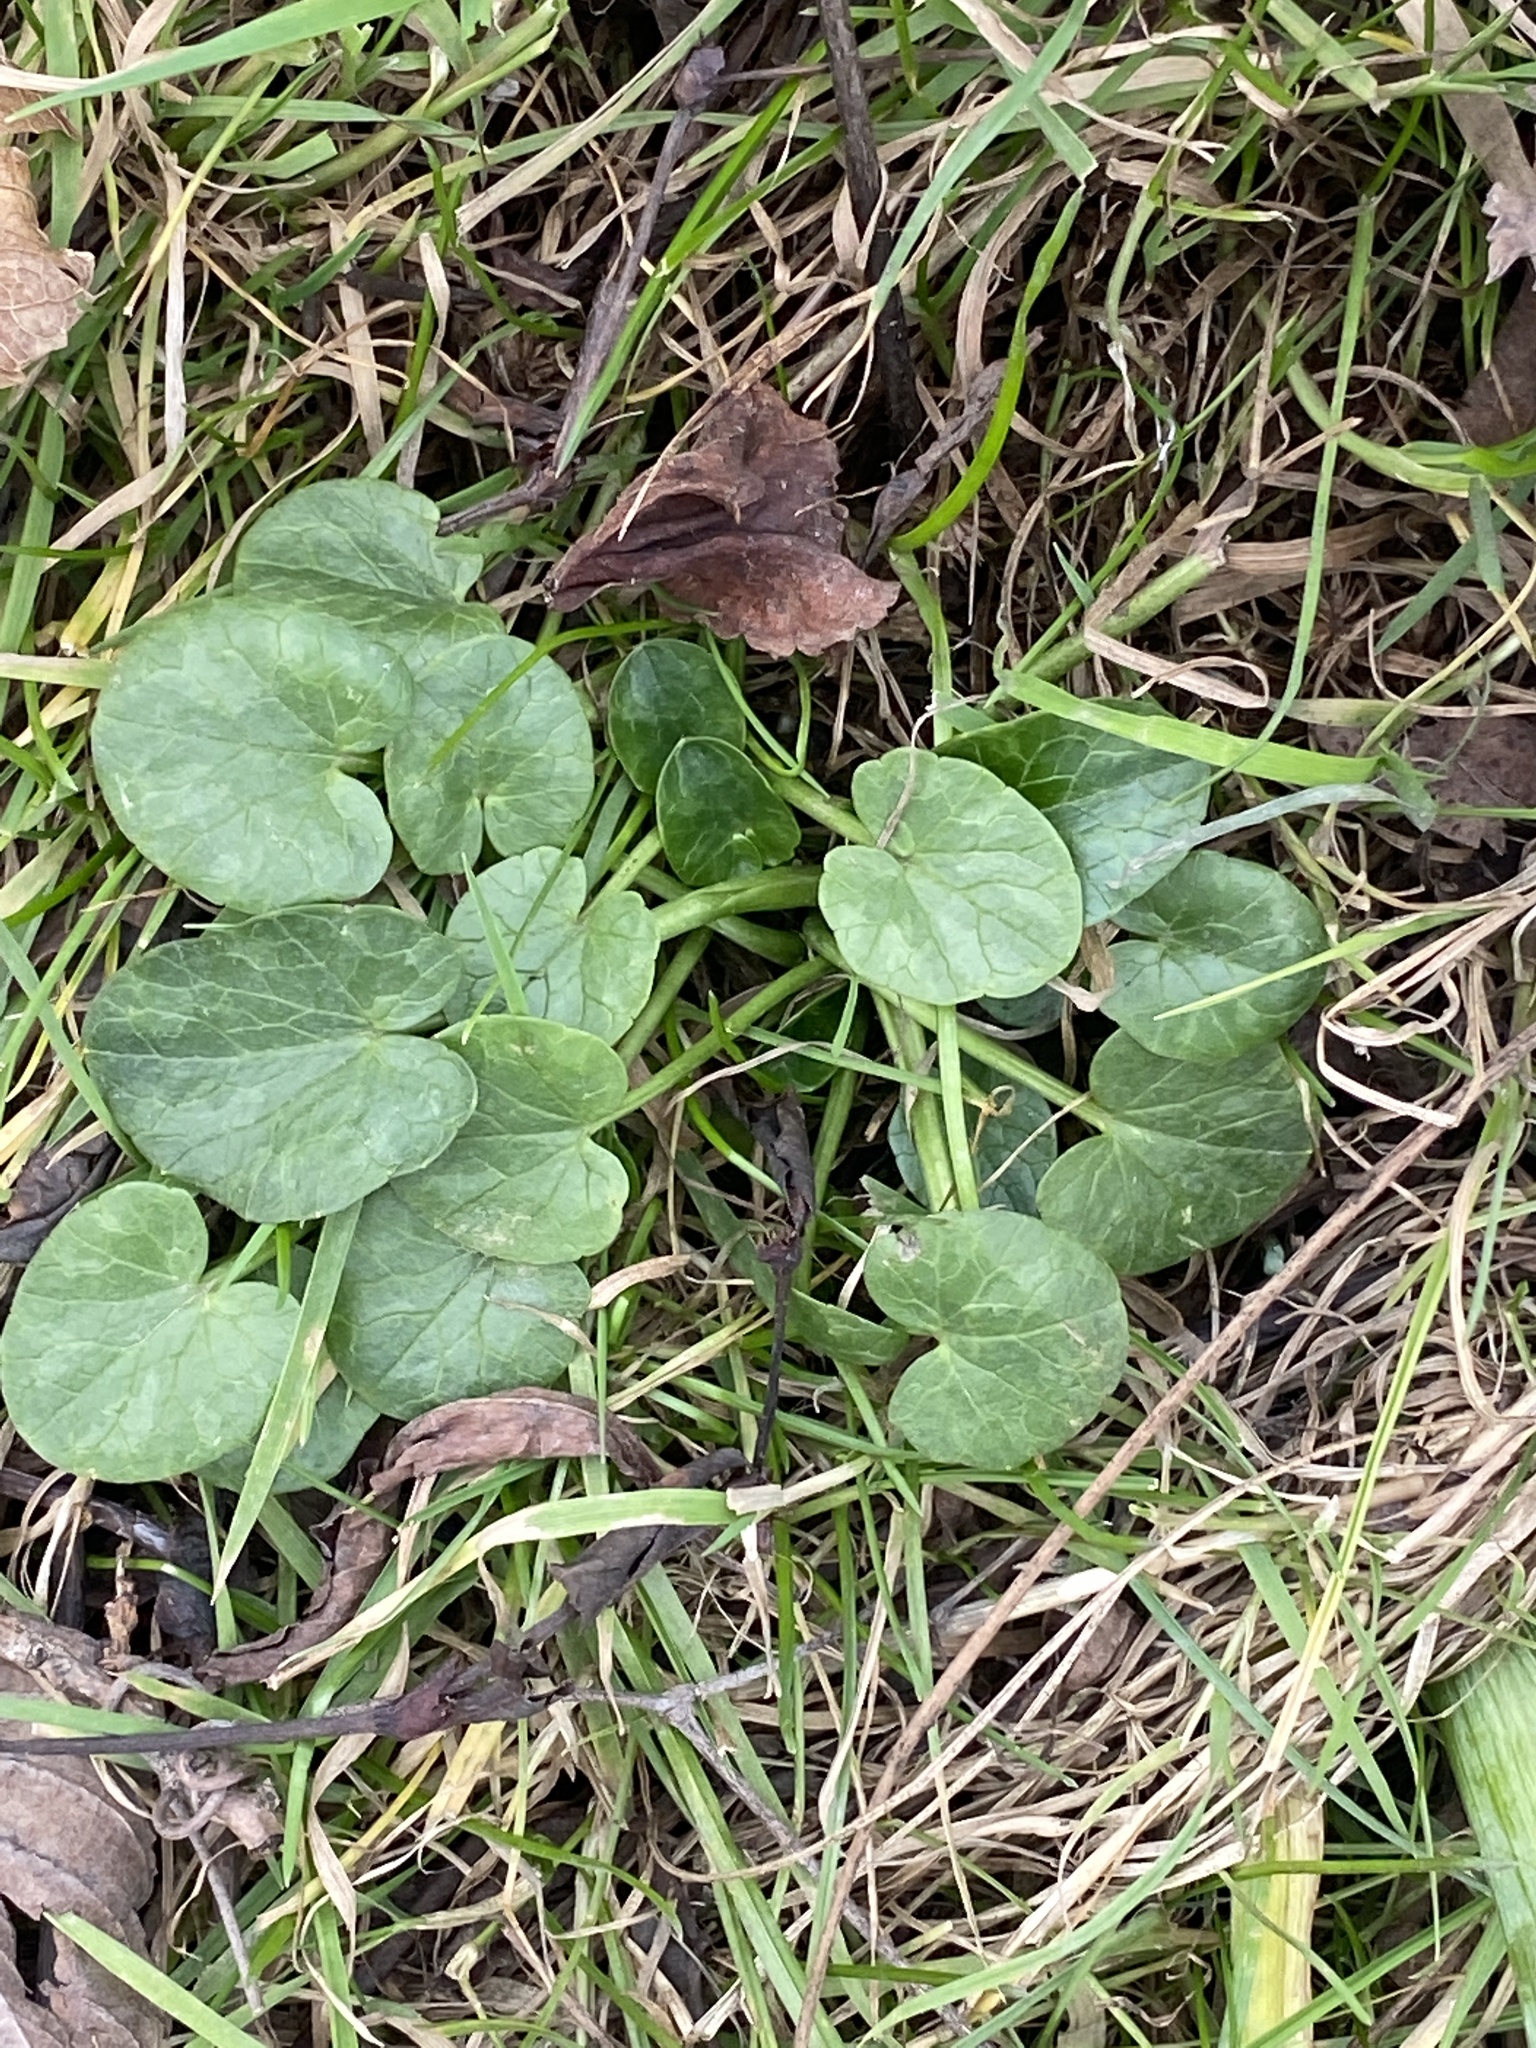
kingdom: Plantae
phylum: Tracheophyta
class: Magnoliopsida
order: Ranunculales
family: Ranunculaceae
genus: Ficaria
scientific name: Ficaria verna
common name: Lesser celandine
